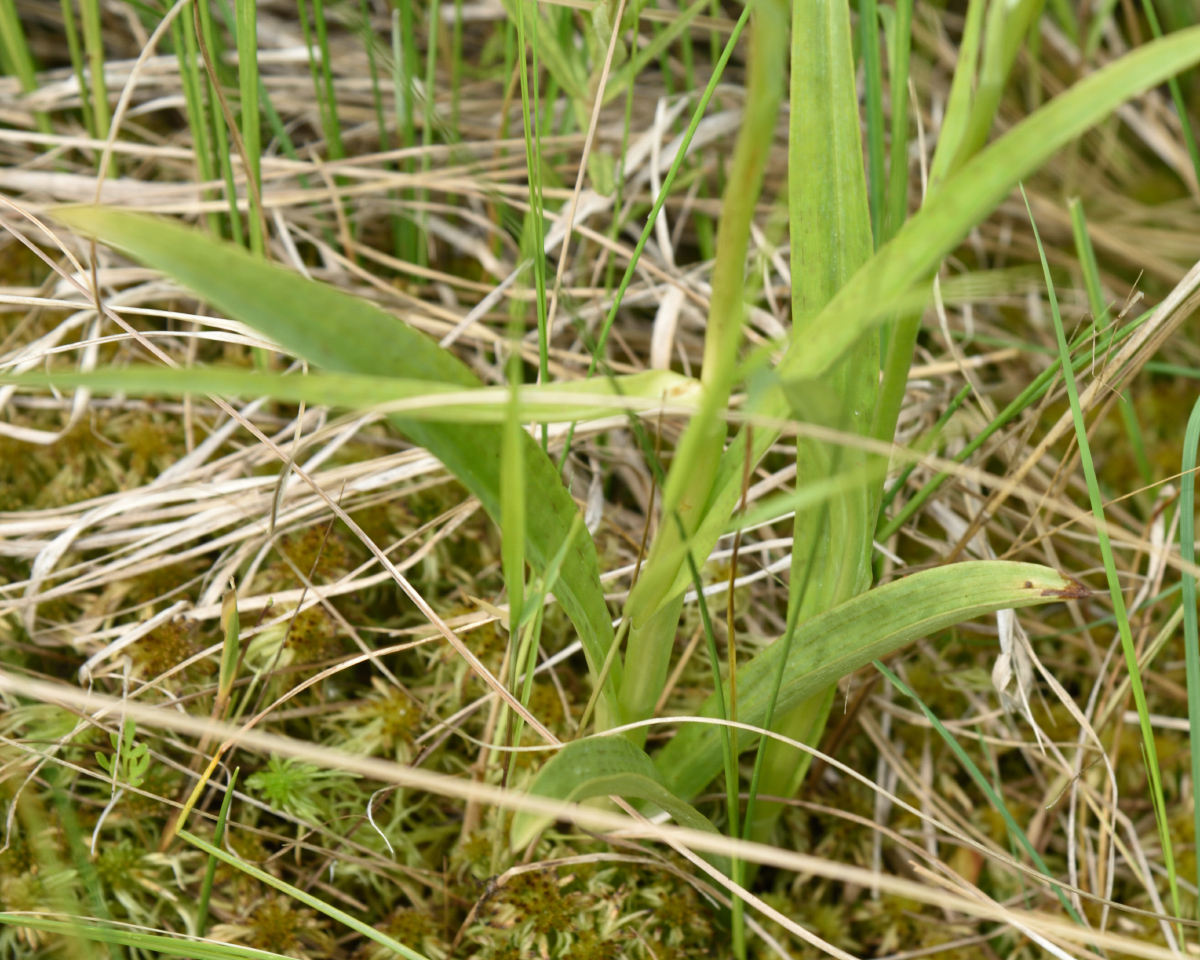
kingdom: Plantae
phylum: Tracheophyta
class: Liliopsida
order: Asparagales
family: Orchidaceae
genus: Dactylorhiza
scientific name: Dactylorhiza maculata
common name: Heath spotted-orchid
